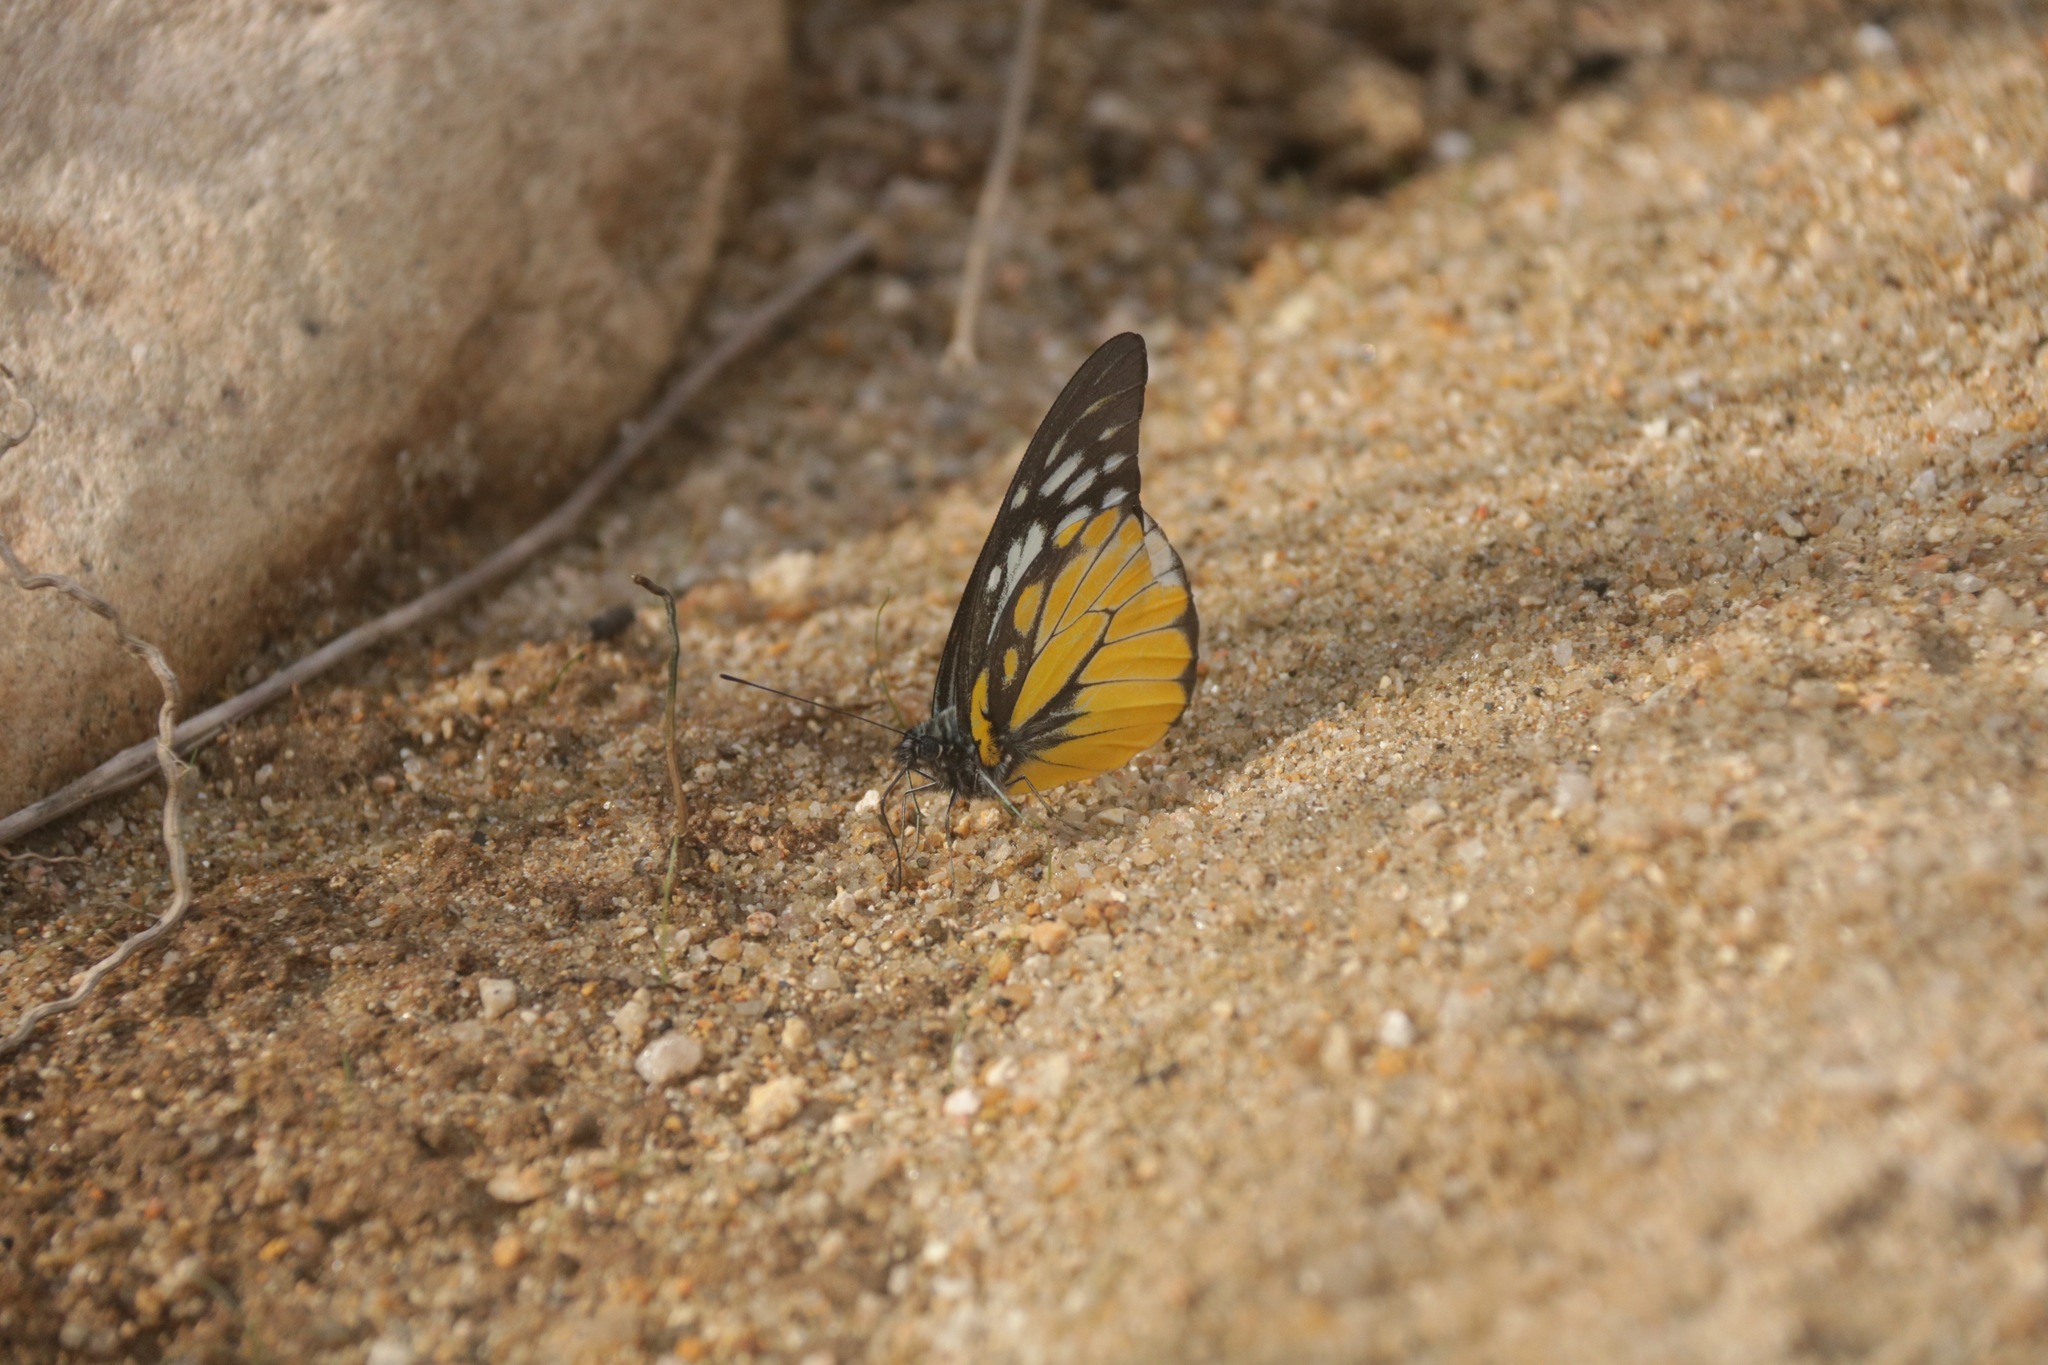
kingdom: Animalia
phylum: Arthropoda
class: Insecta
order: Lepidoptera
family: Pieridae
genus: Prioneris
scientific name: Prioneris thestylis
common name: Spotted sawtooth
